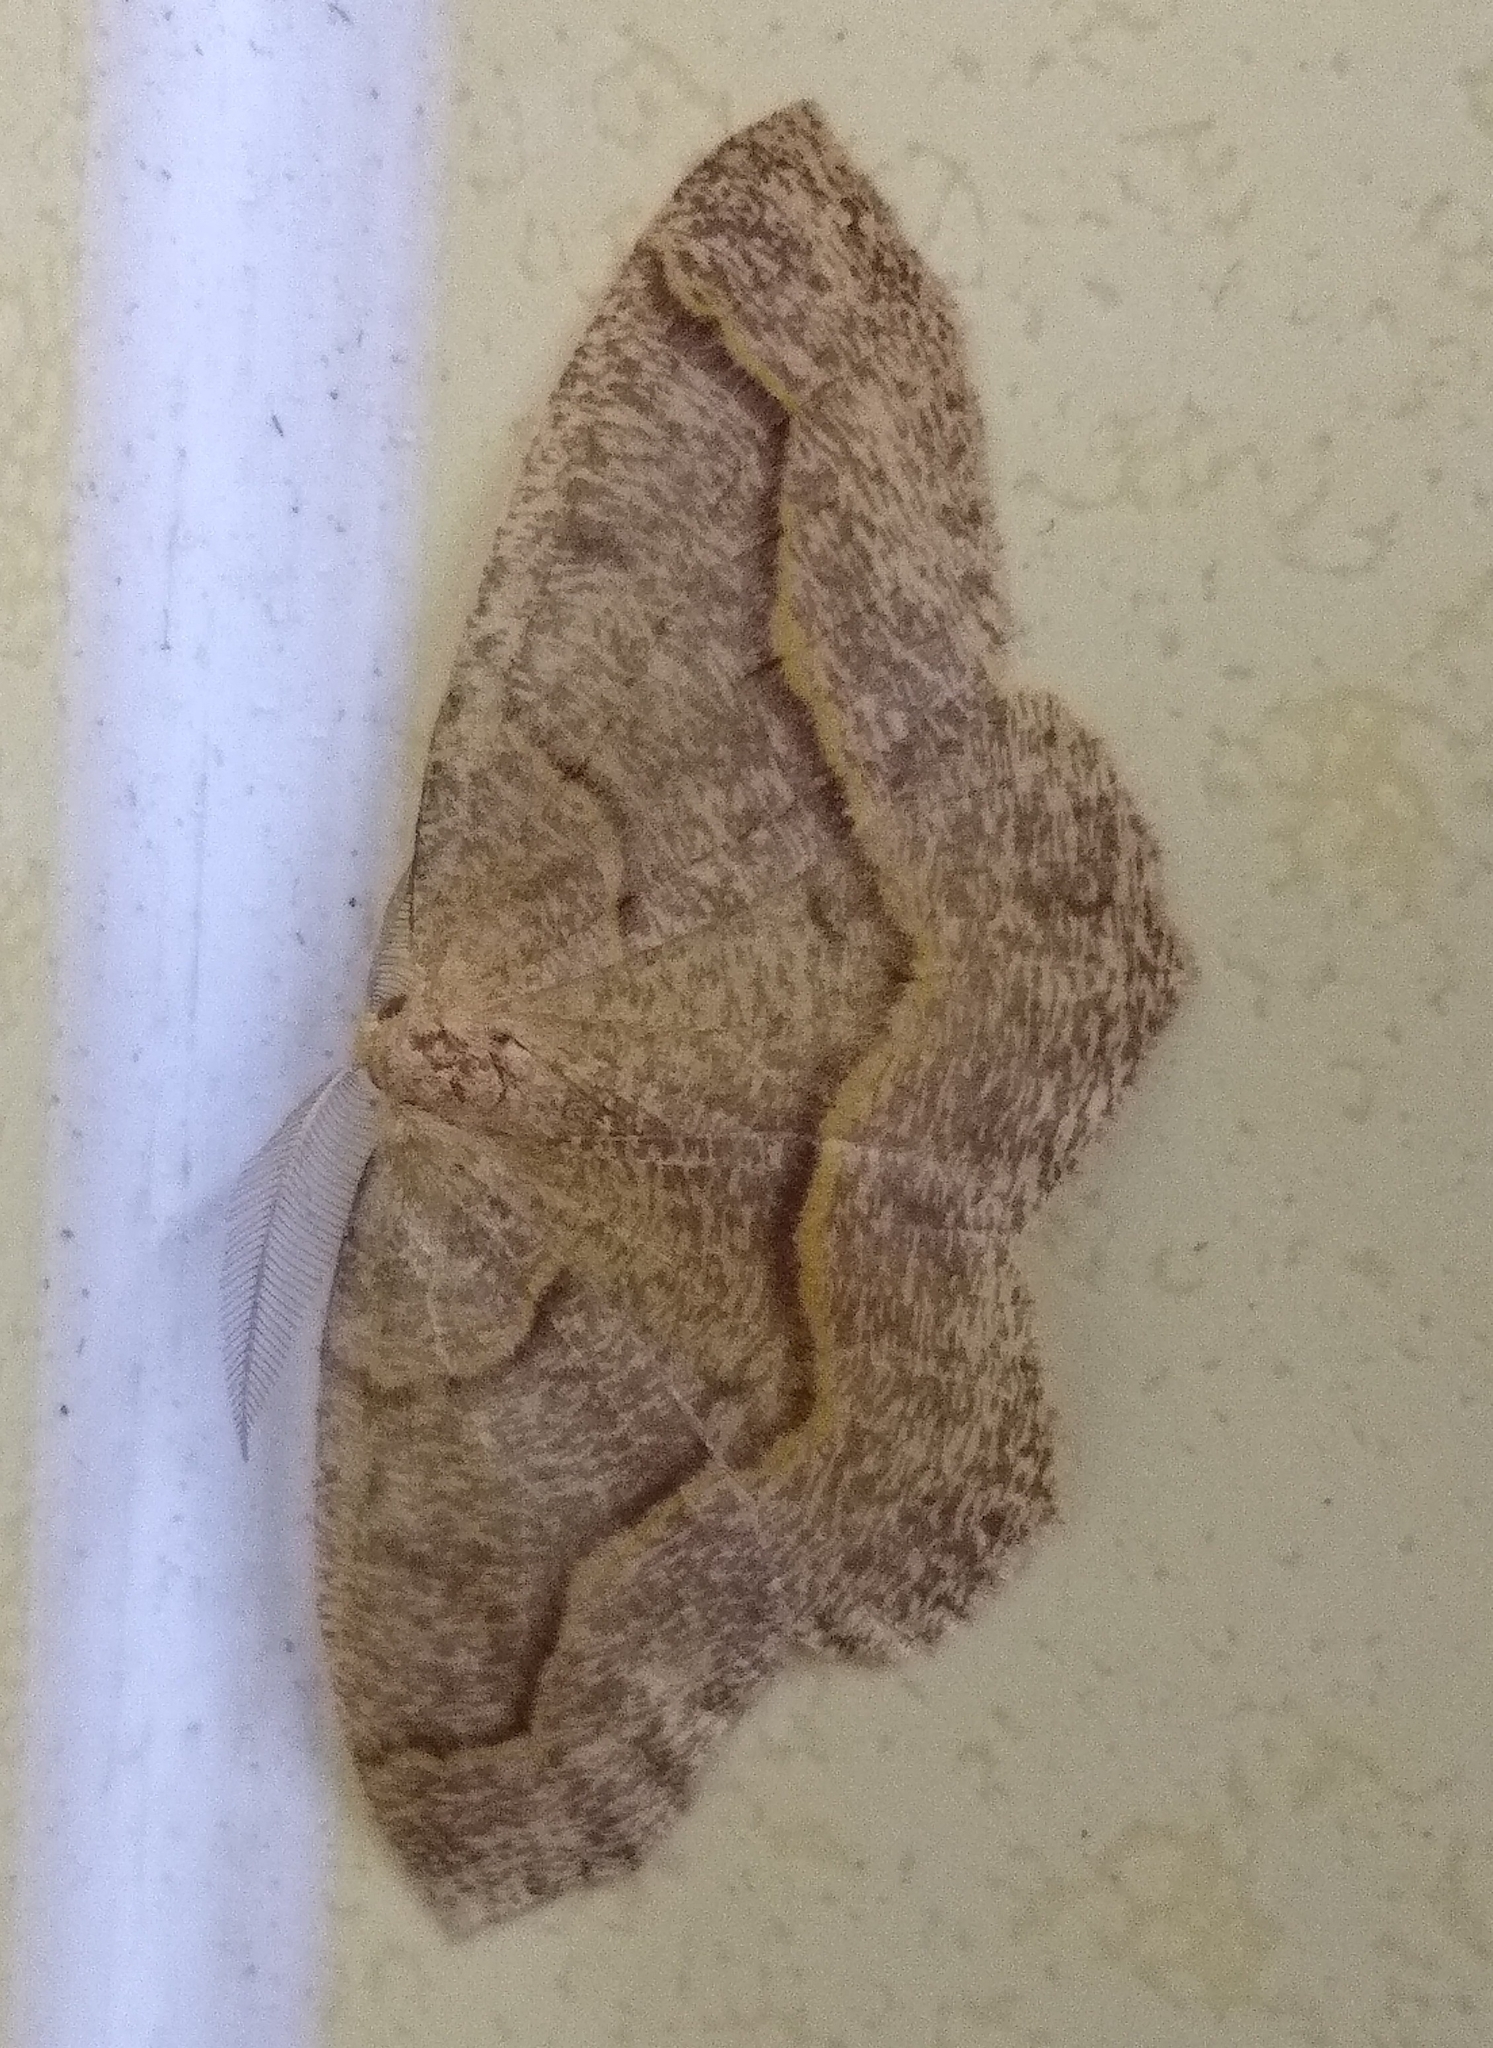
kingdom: Animalia
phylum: Arthropoda
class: Insecta
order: Lepidoptera
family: Geometridae
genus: Lambdina
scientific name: Lambdina fiscellaria
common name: Hemlock looper
